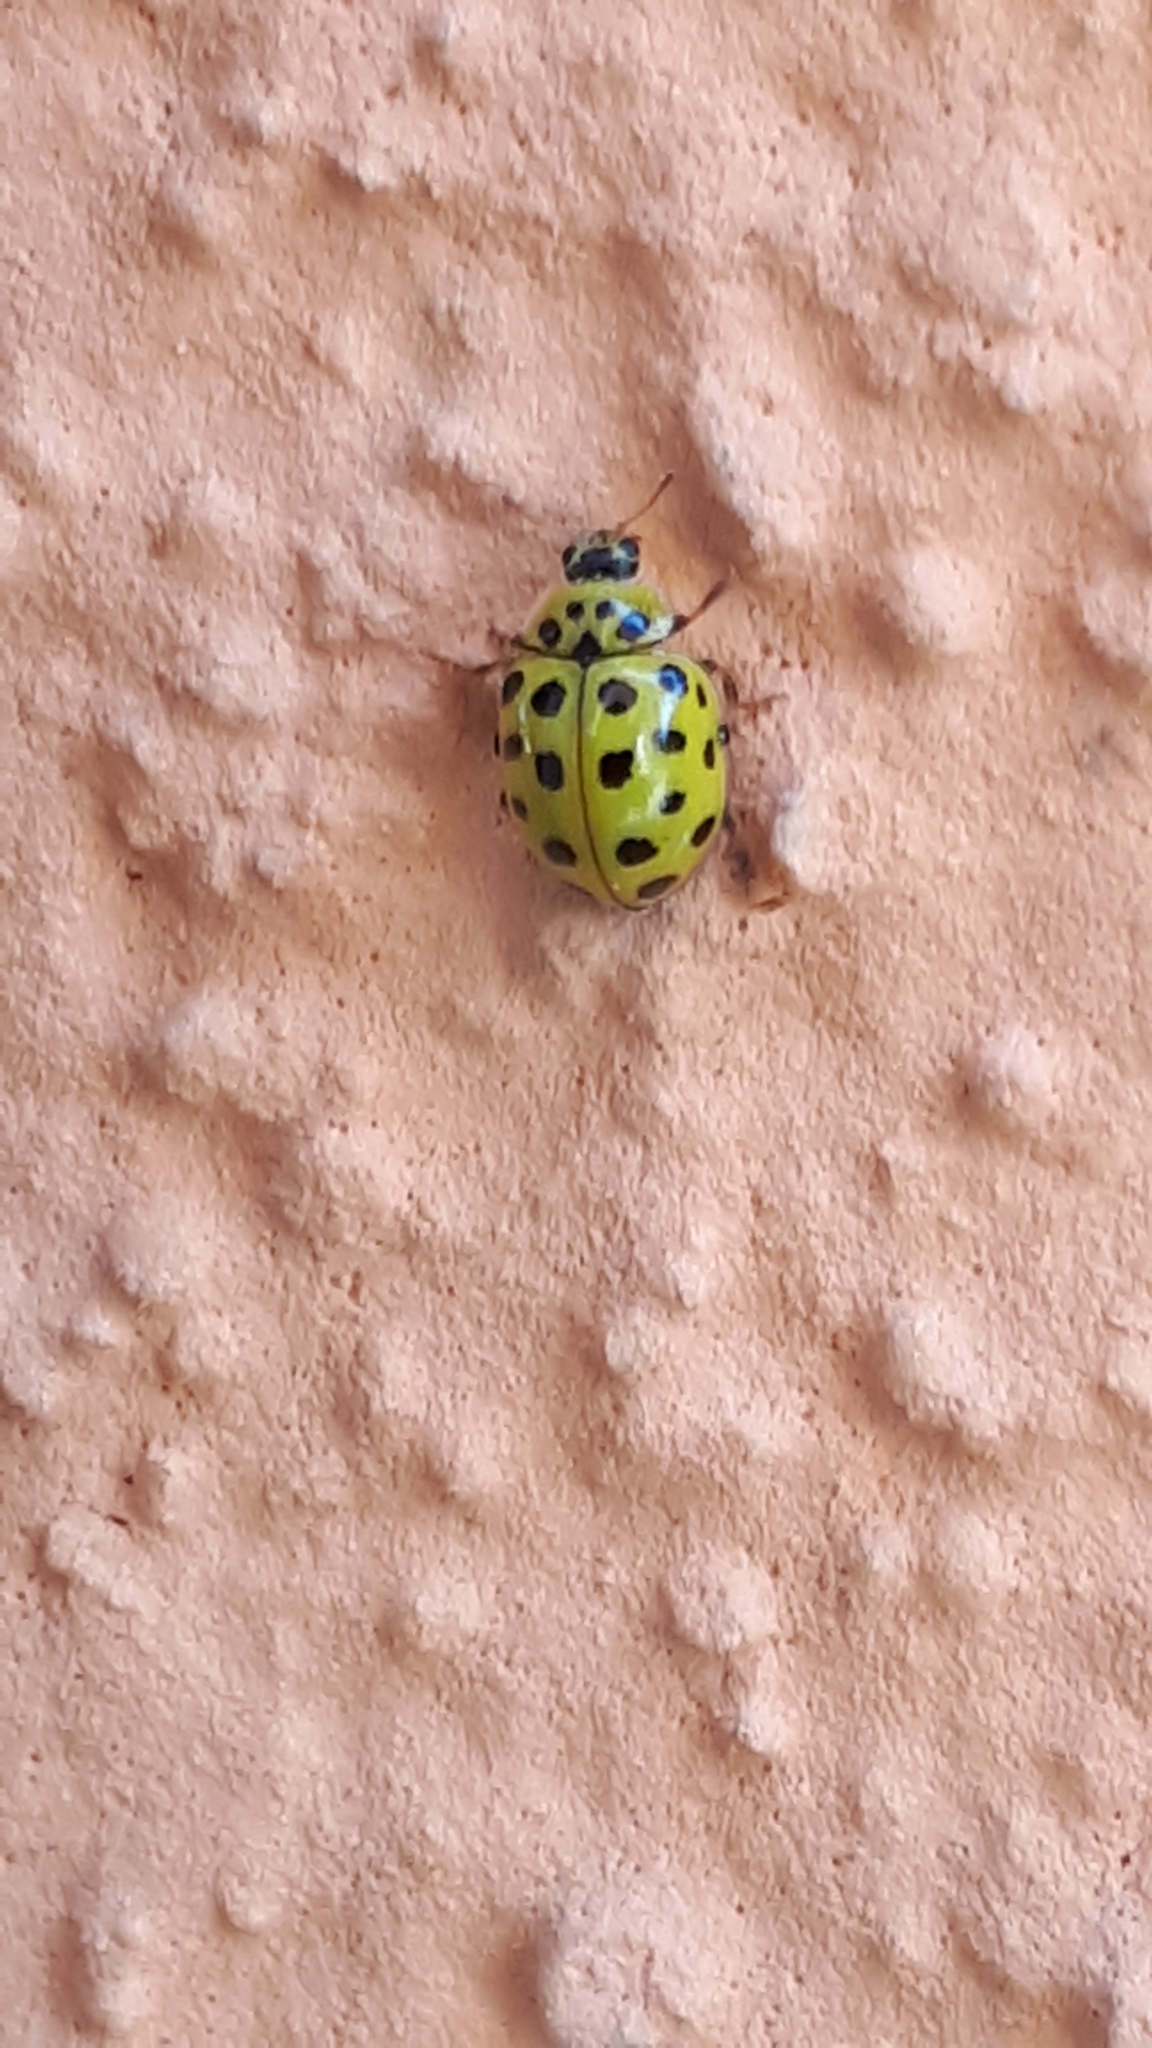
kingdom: Animalia
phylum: Arthropoda
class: Insecta
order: Coleoptera
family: Coccinellidae
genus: Psyllobora
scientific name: Psyllobora vigintiduopunctata
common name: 22-spot ladybird
